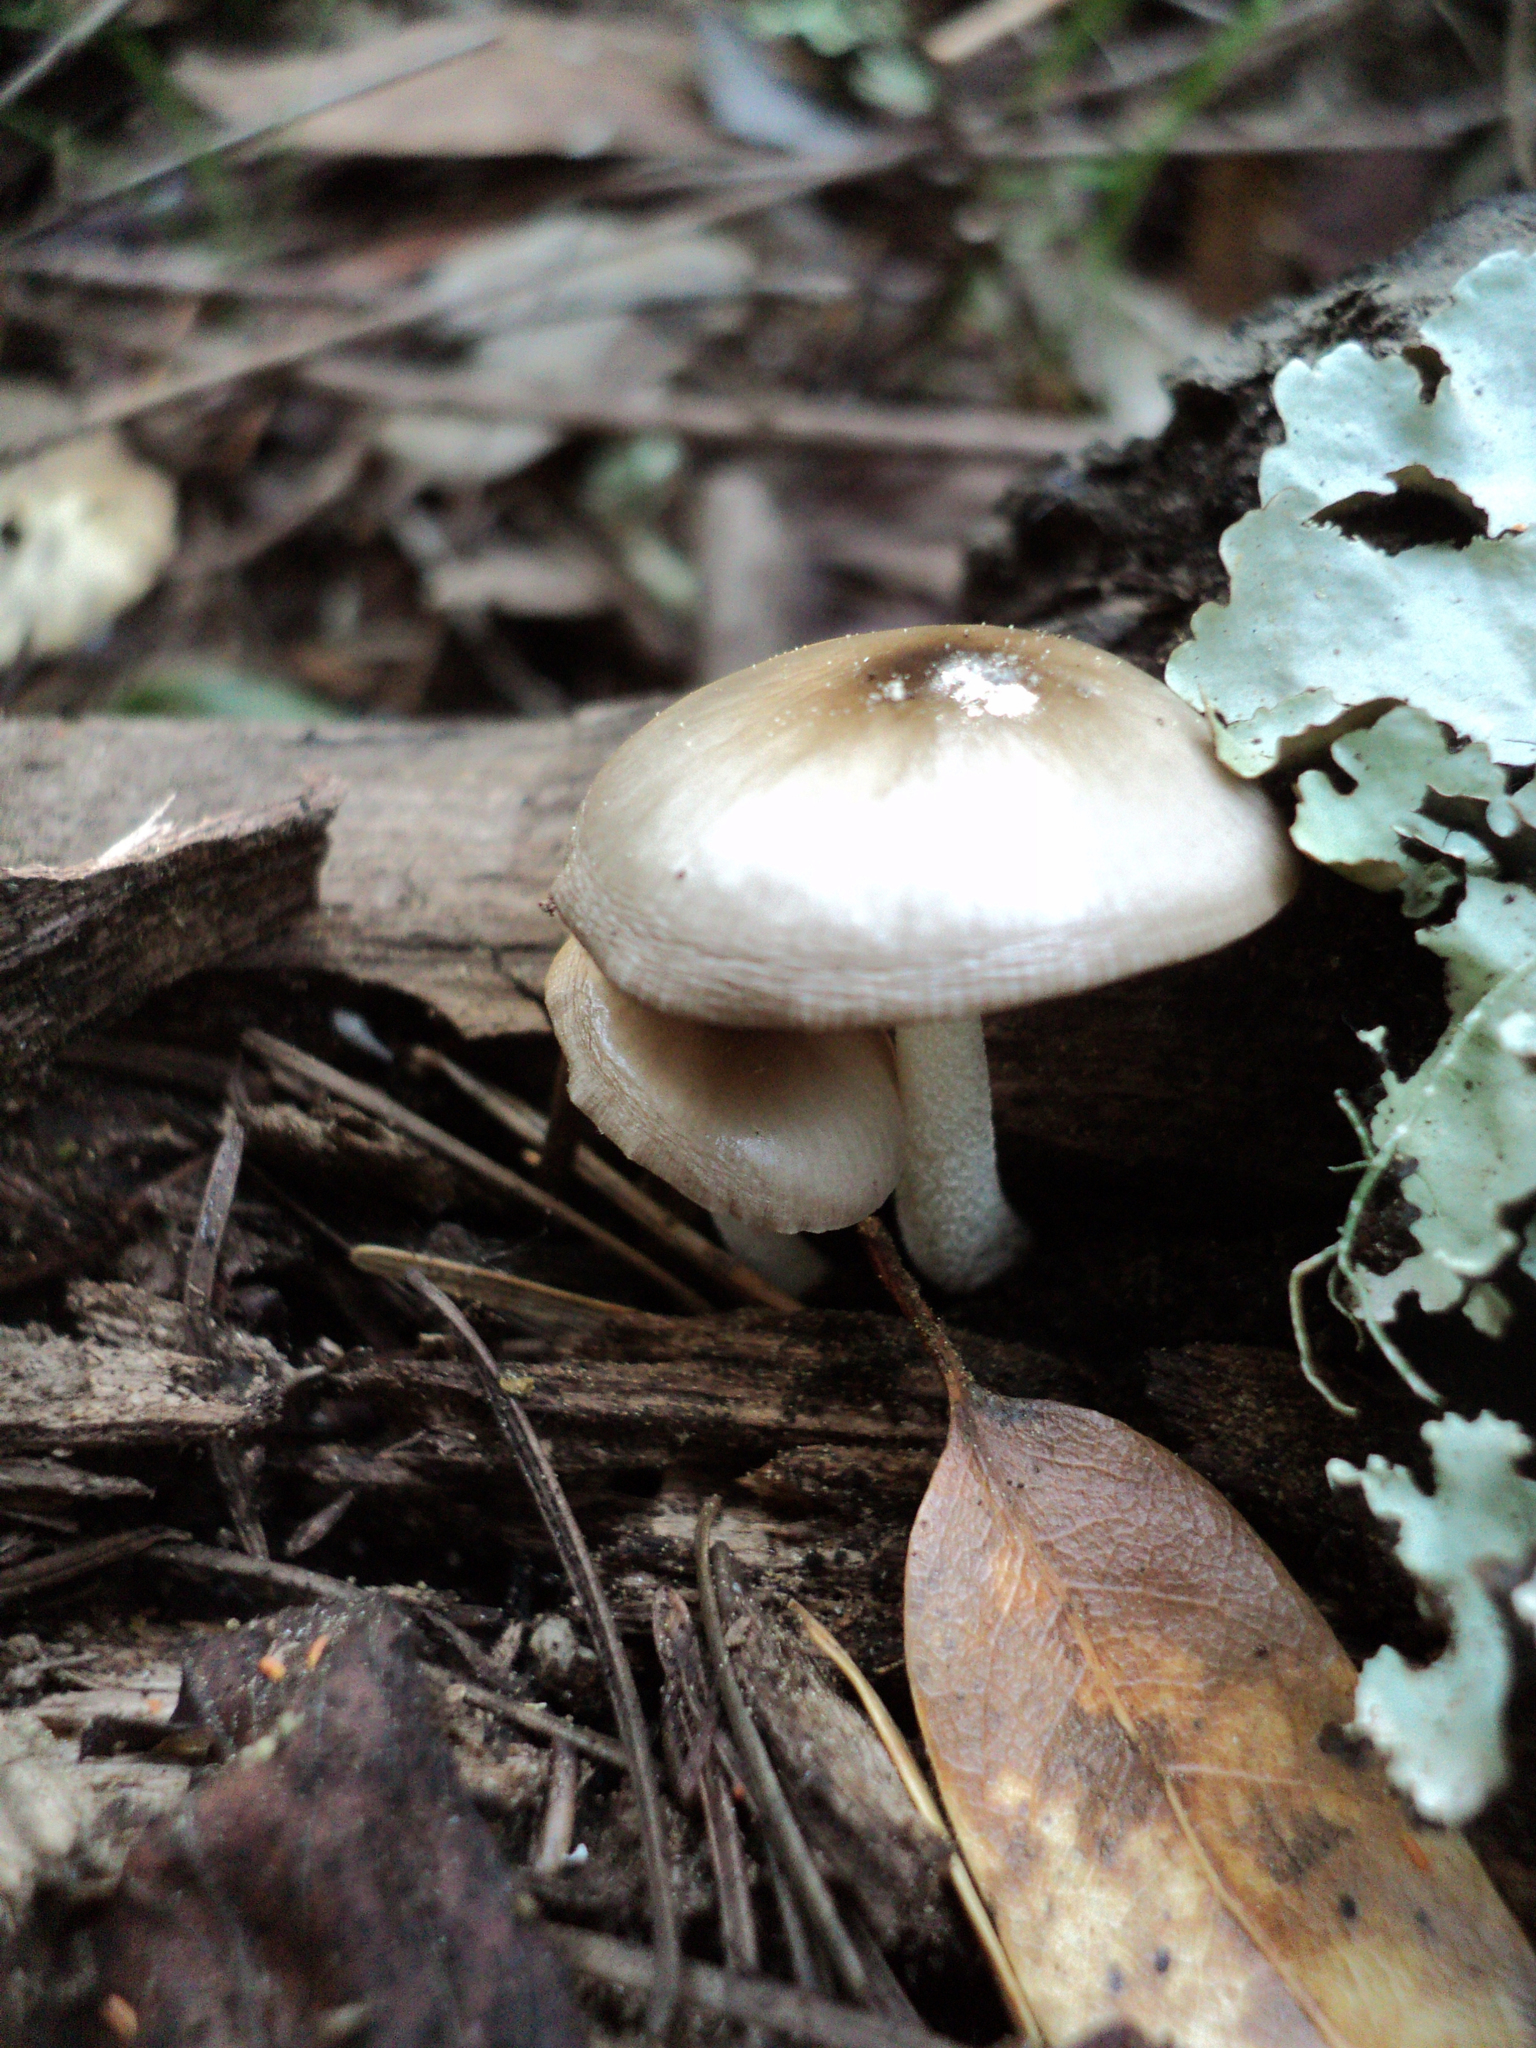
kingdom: Fungi
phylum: Basidiomycota
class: Agaricomycetes
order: Agaricales
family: Bolbitiaceae
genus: Bolbitius
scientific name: Bolbitius reticulatus
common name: Netted fieldcap
